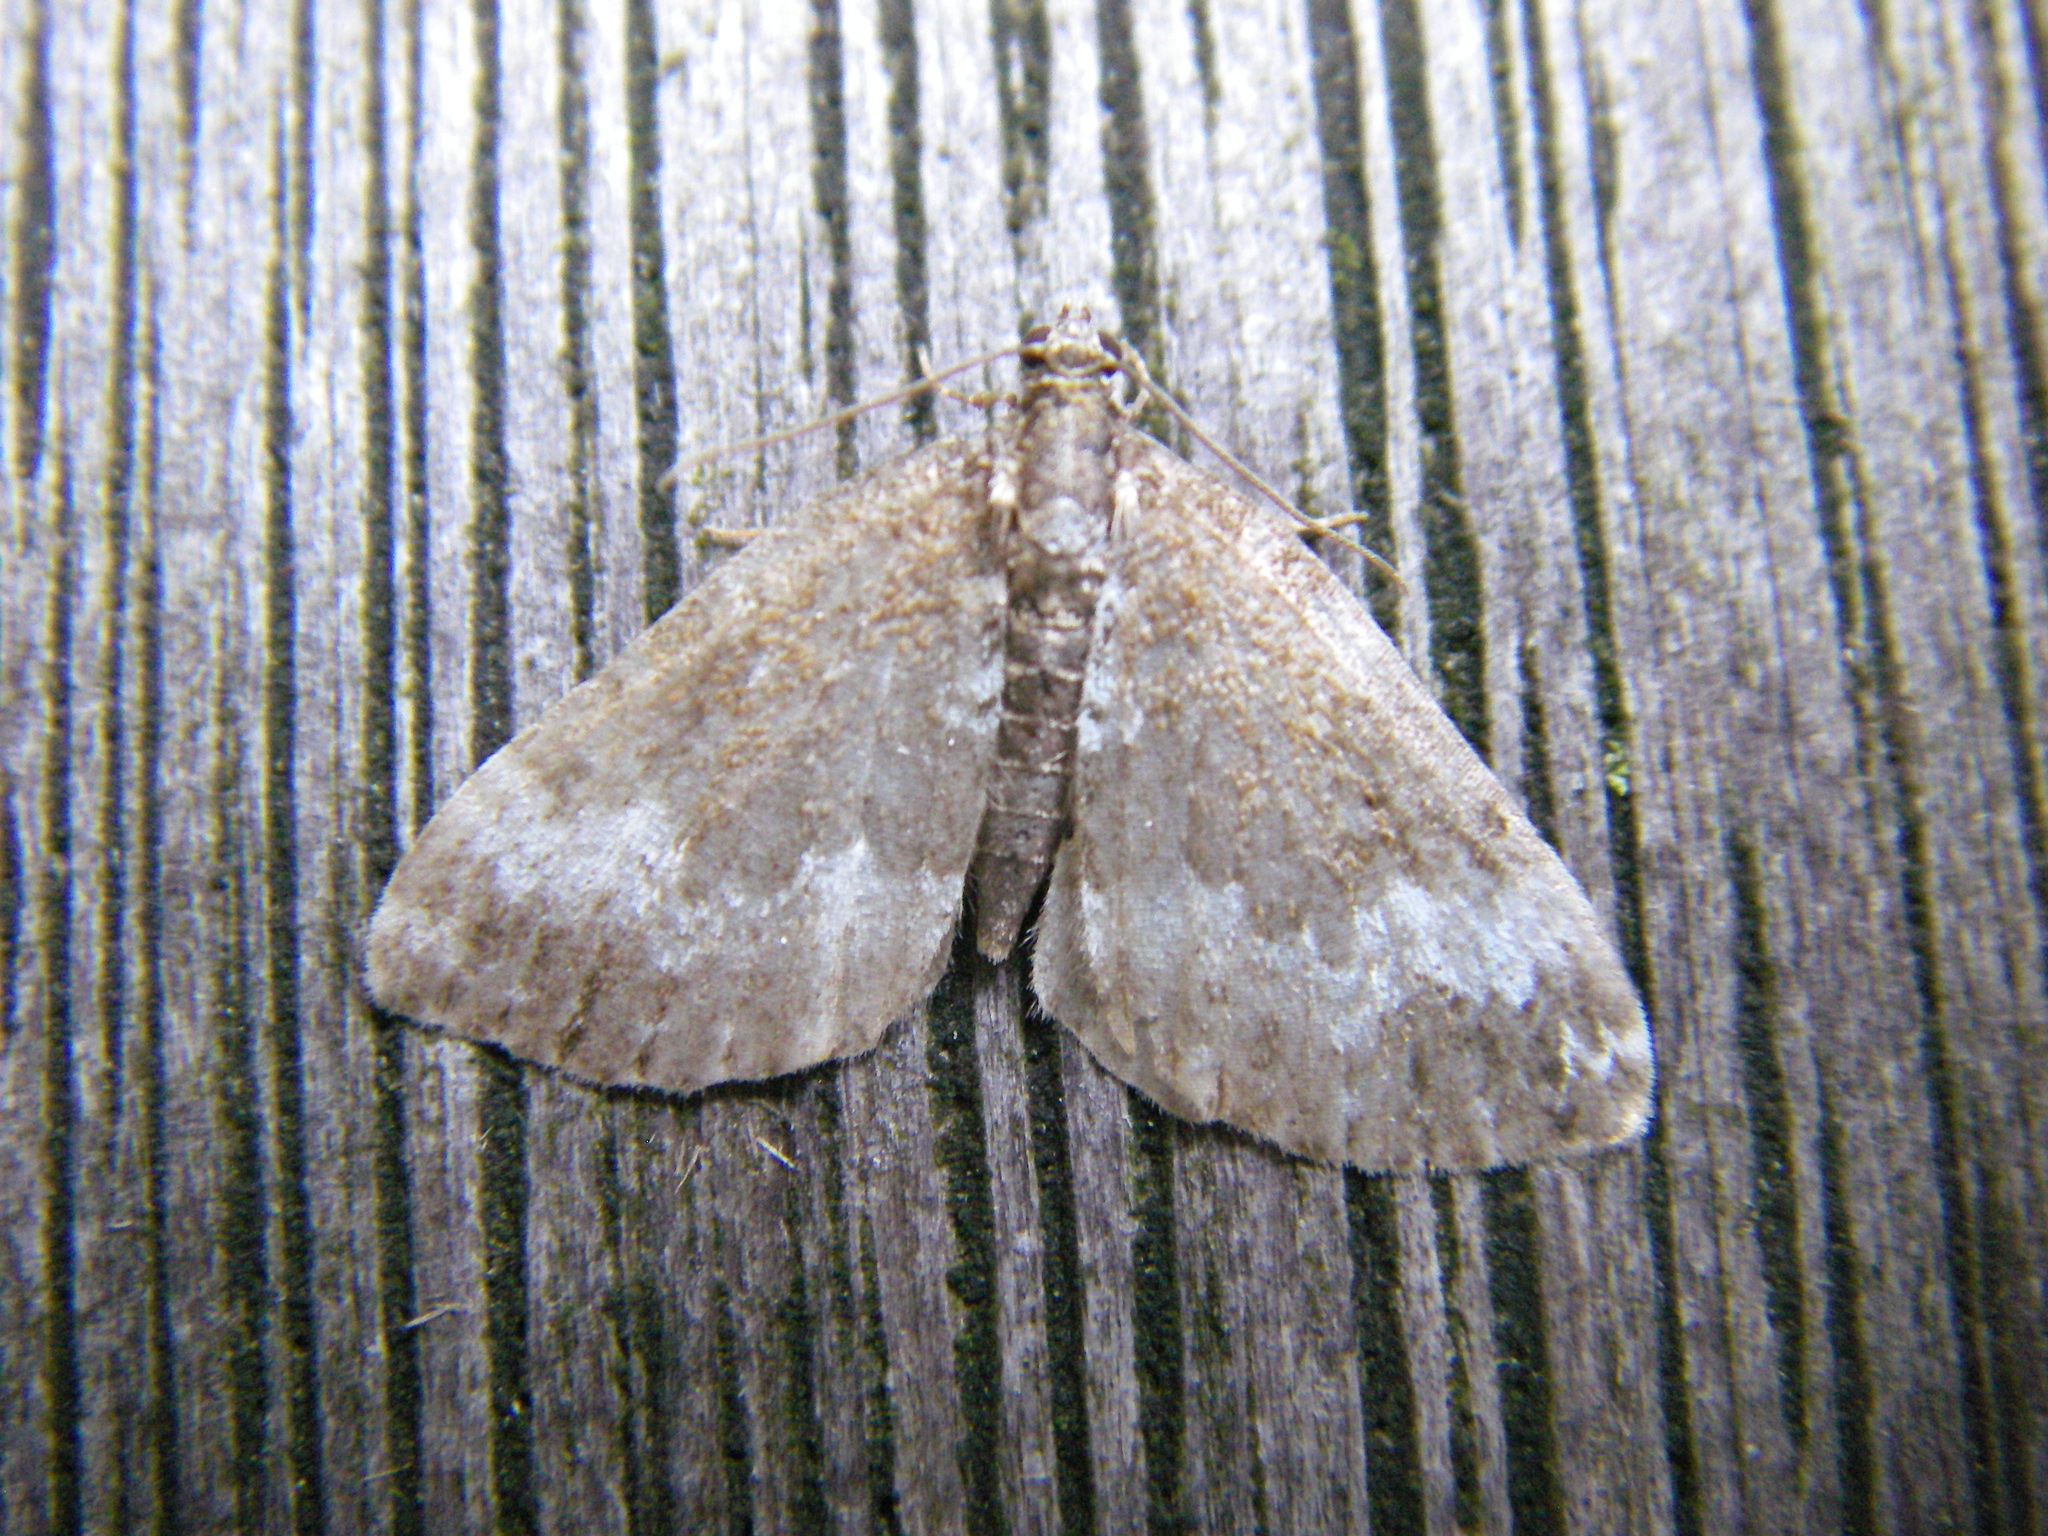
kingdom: Animalia
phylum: Arthropoda
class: Insecta
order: Lepidoptera
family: Geometridae
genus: Perizoma
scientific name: Perizoma alchemillata
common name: Small rivulet
